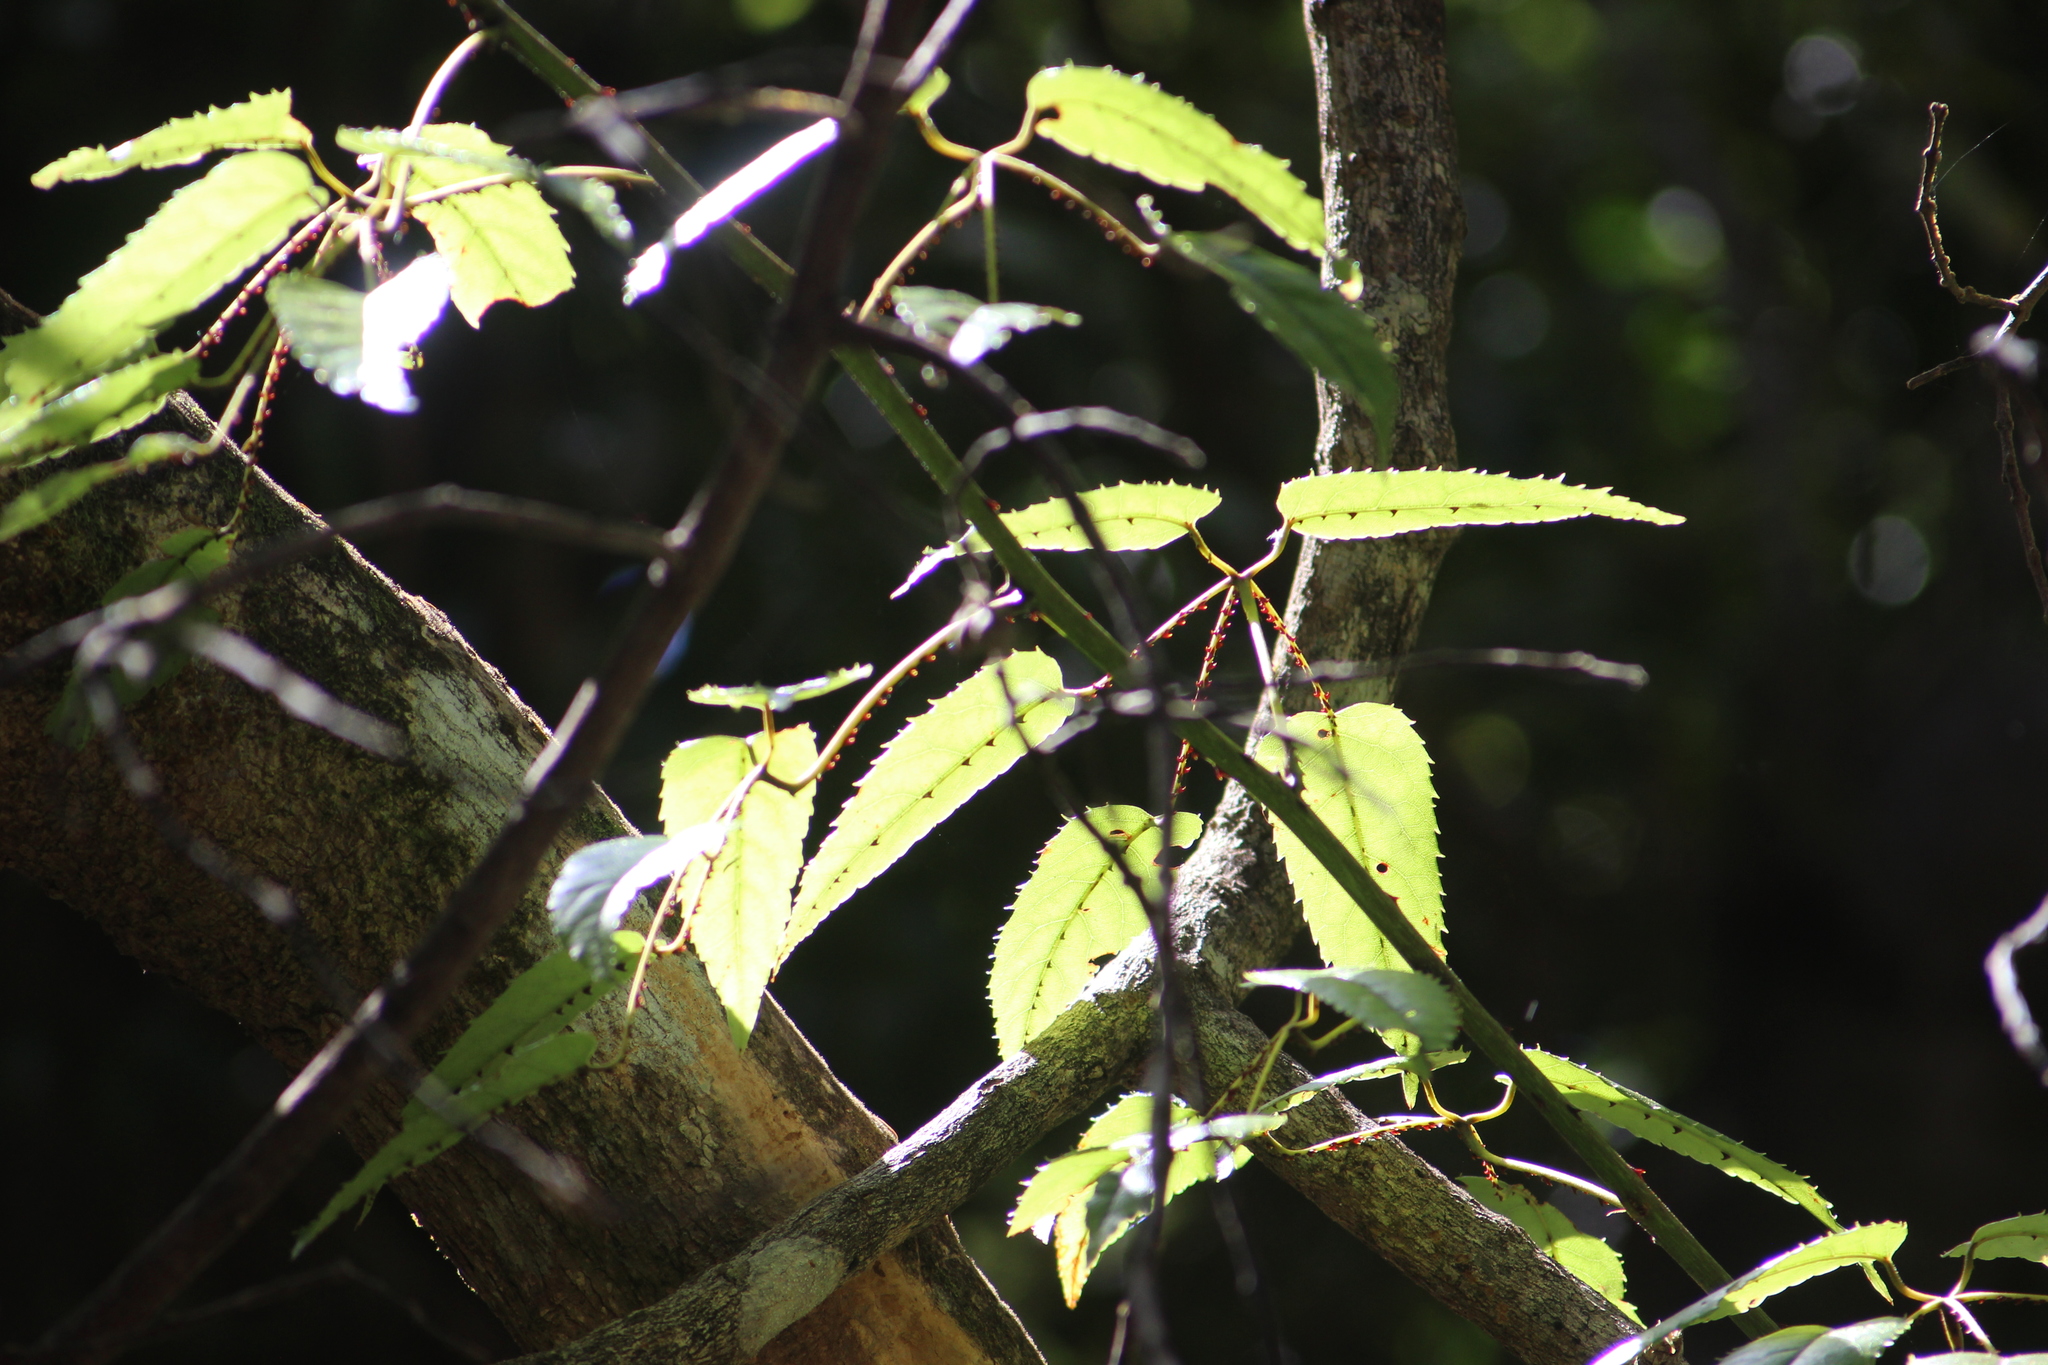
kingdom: Plantae
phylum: Tracheophyta
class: Magnoliopsida
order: Rosales
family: Rosaceae
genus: Rubus
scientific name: Rubus cissoides
